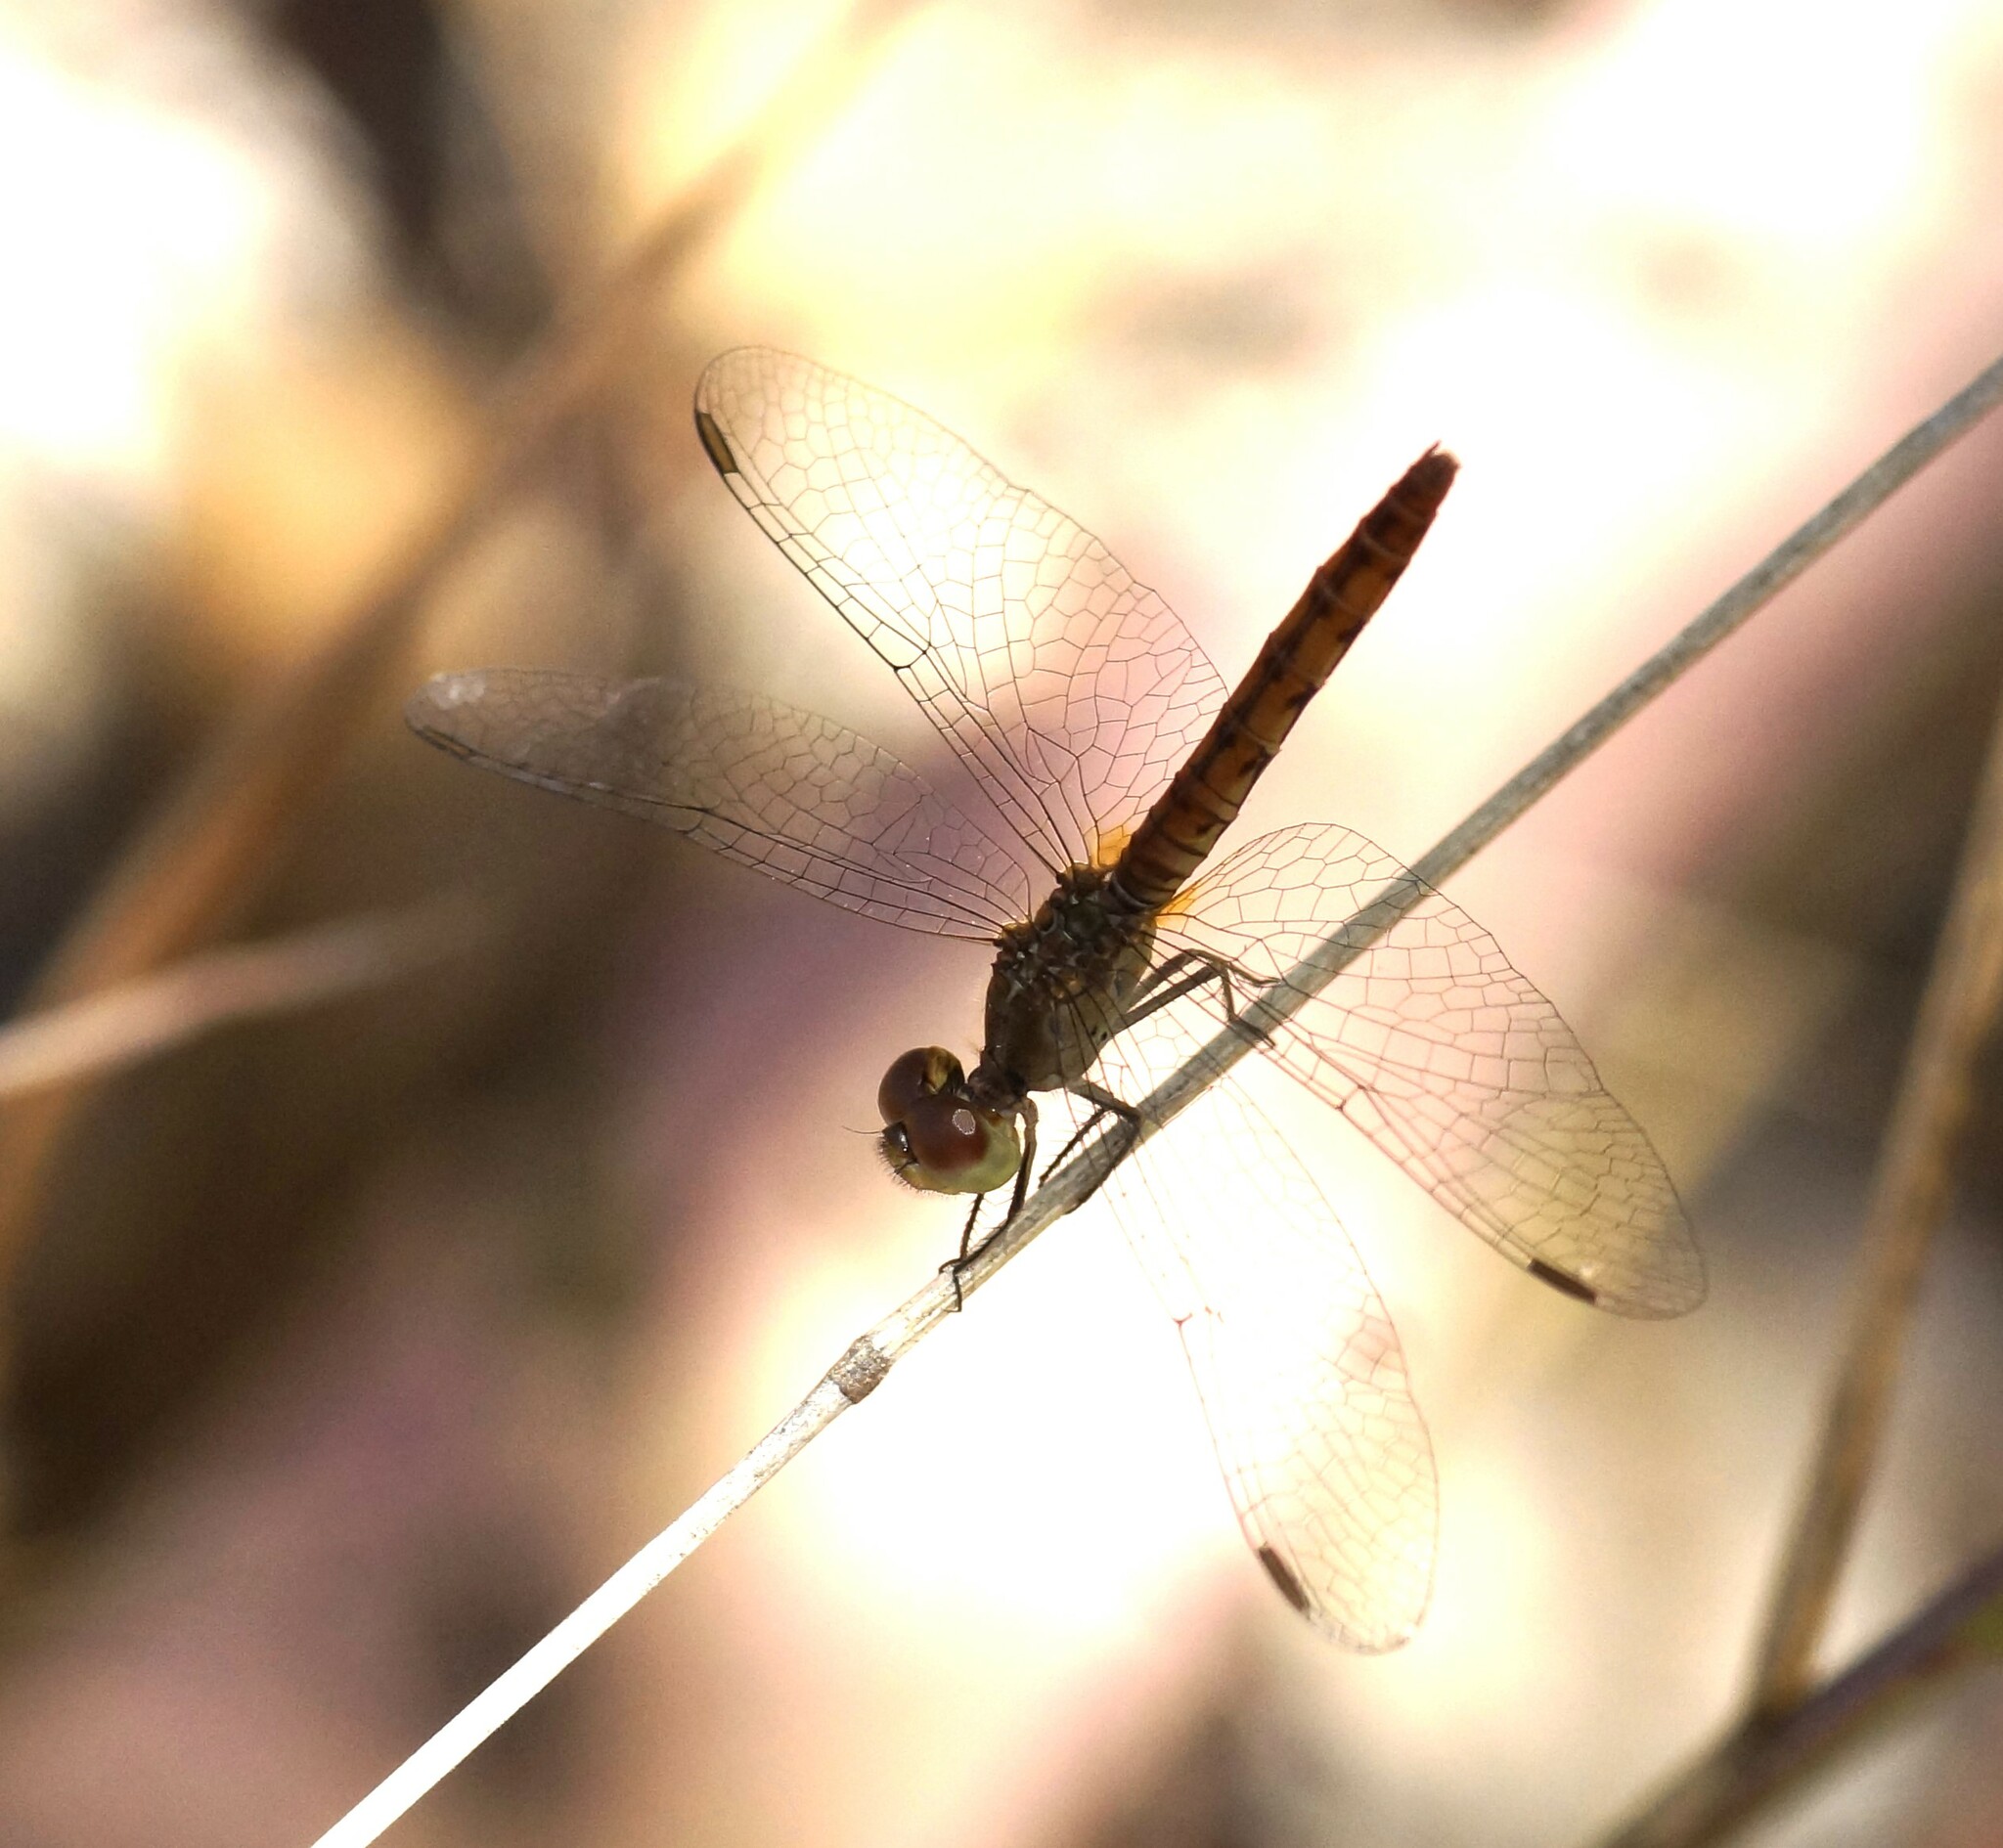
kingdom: Animalia
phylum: Arthropoda
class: Insecta
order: Odonata
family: Libellulidae
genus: Nannodiplax
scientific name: Nannodiplax rubra
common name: Pygmy percher
